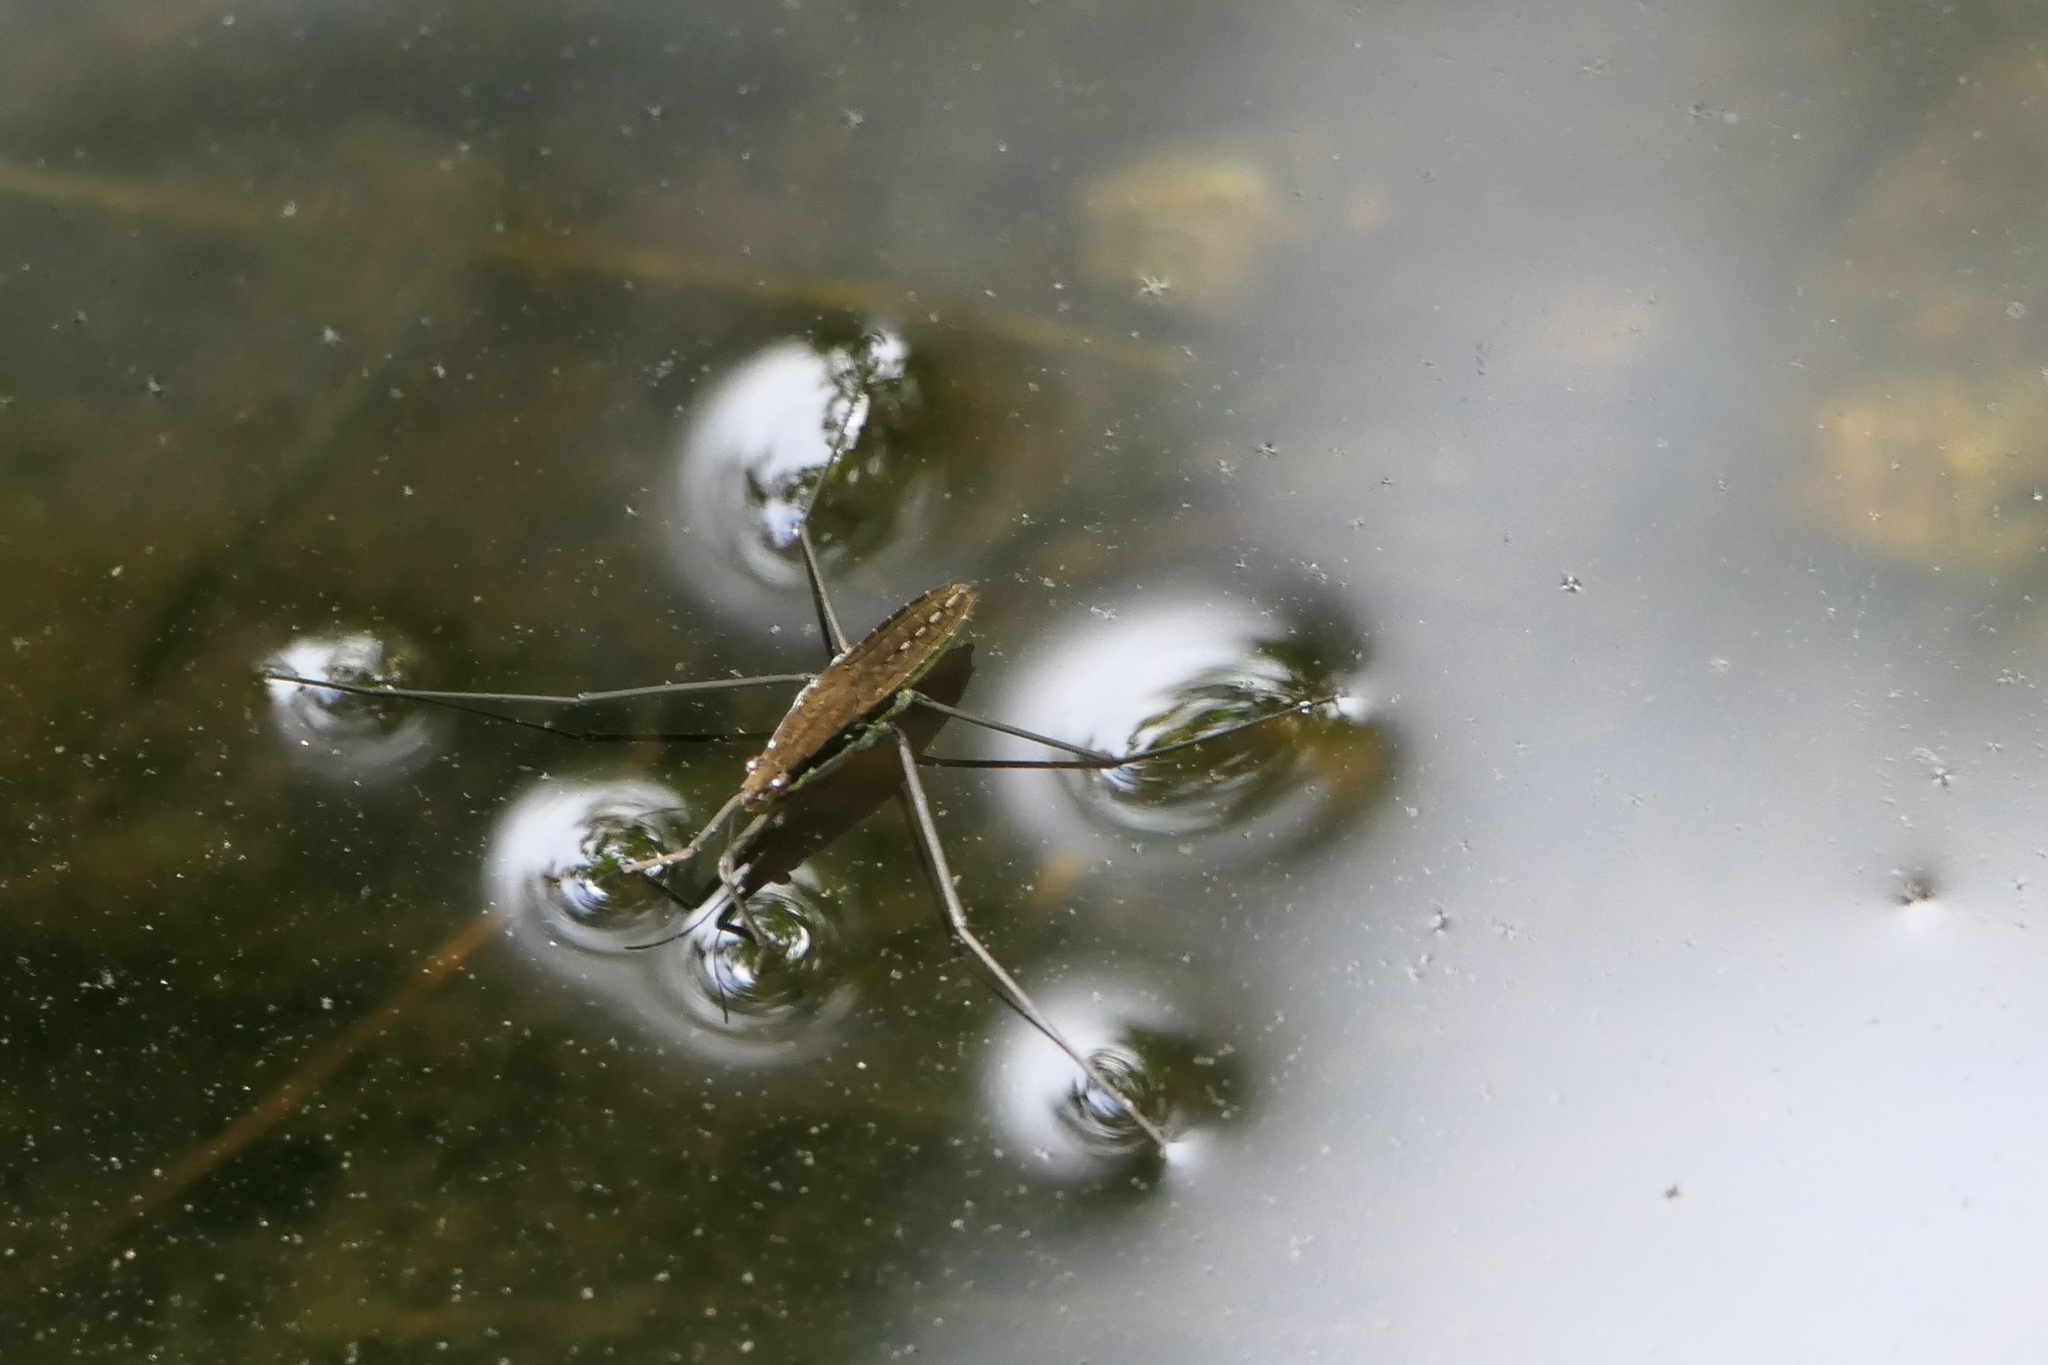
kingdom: Animalia
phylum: Arthropoda
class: Insecta
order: Hemiptera
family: Gerridae
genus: Aquarius
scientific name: Aquarius remigis
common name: Common water strider
